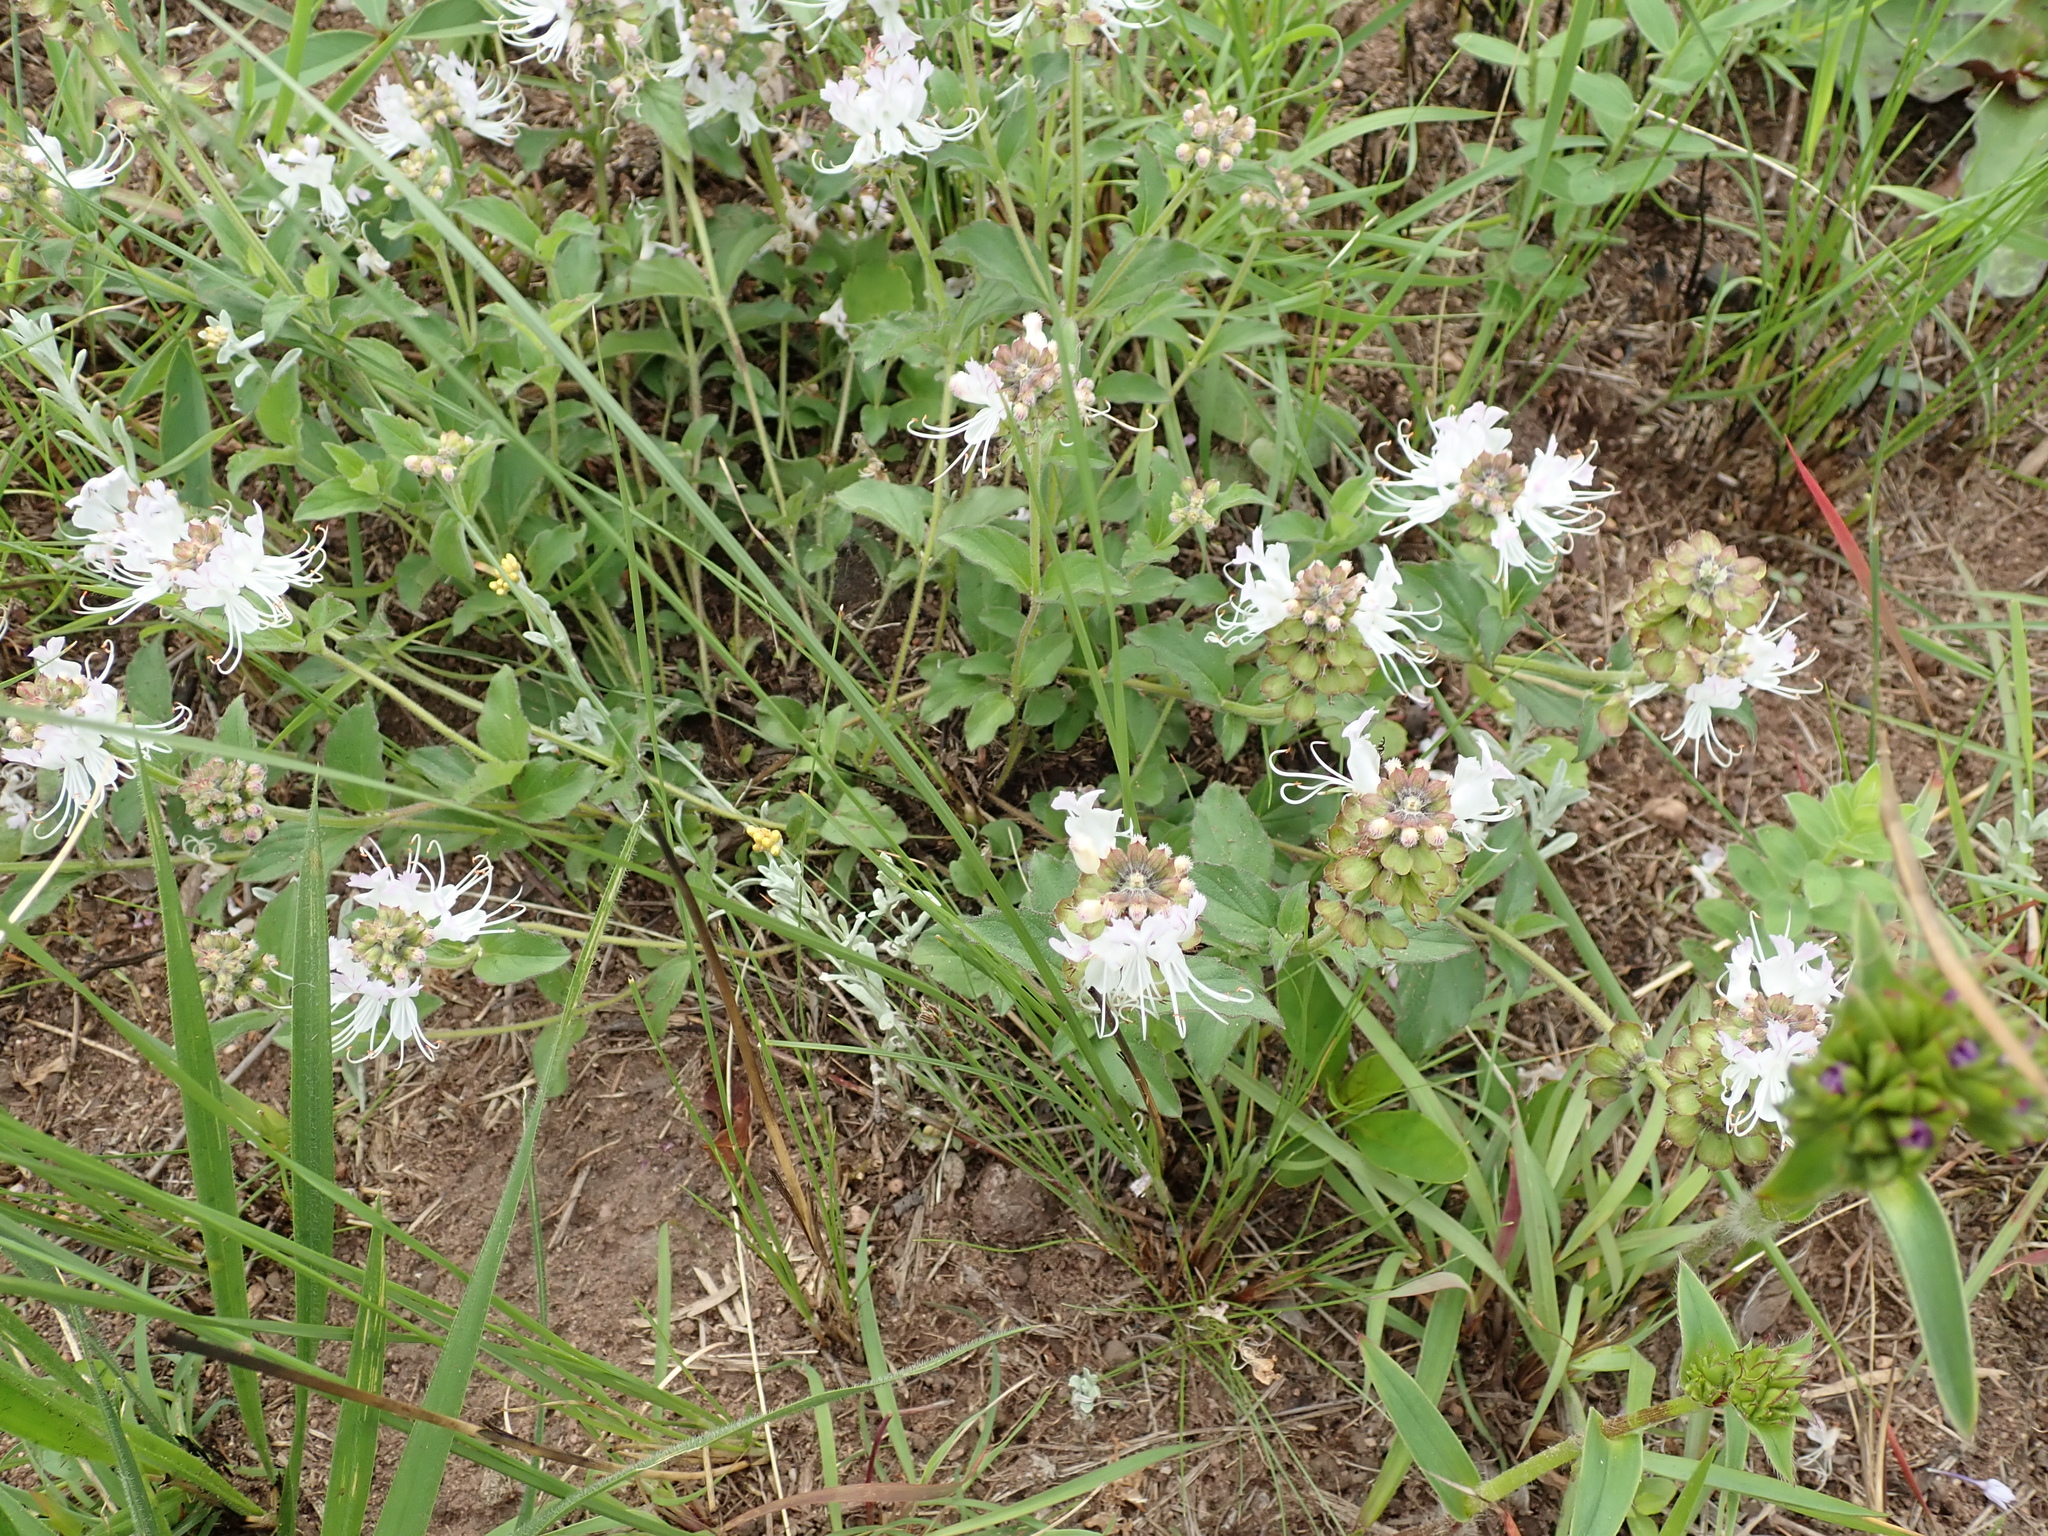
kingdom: Plantae
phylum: Tracheophyta
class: Magnoliopsida
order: Lamiales
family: Lamiaceae
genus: Ocimum
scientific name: Ocimum obovatum
